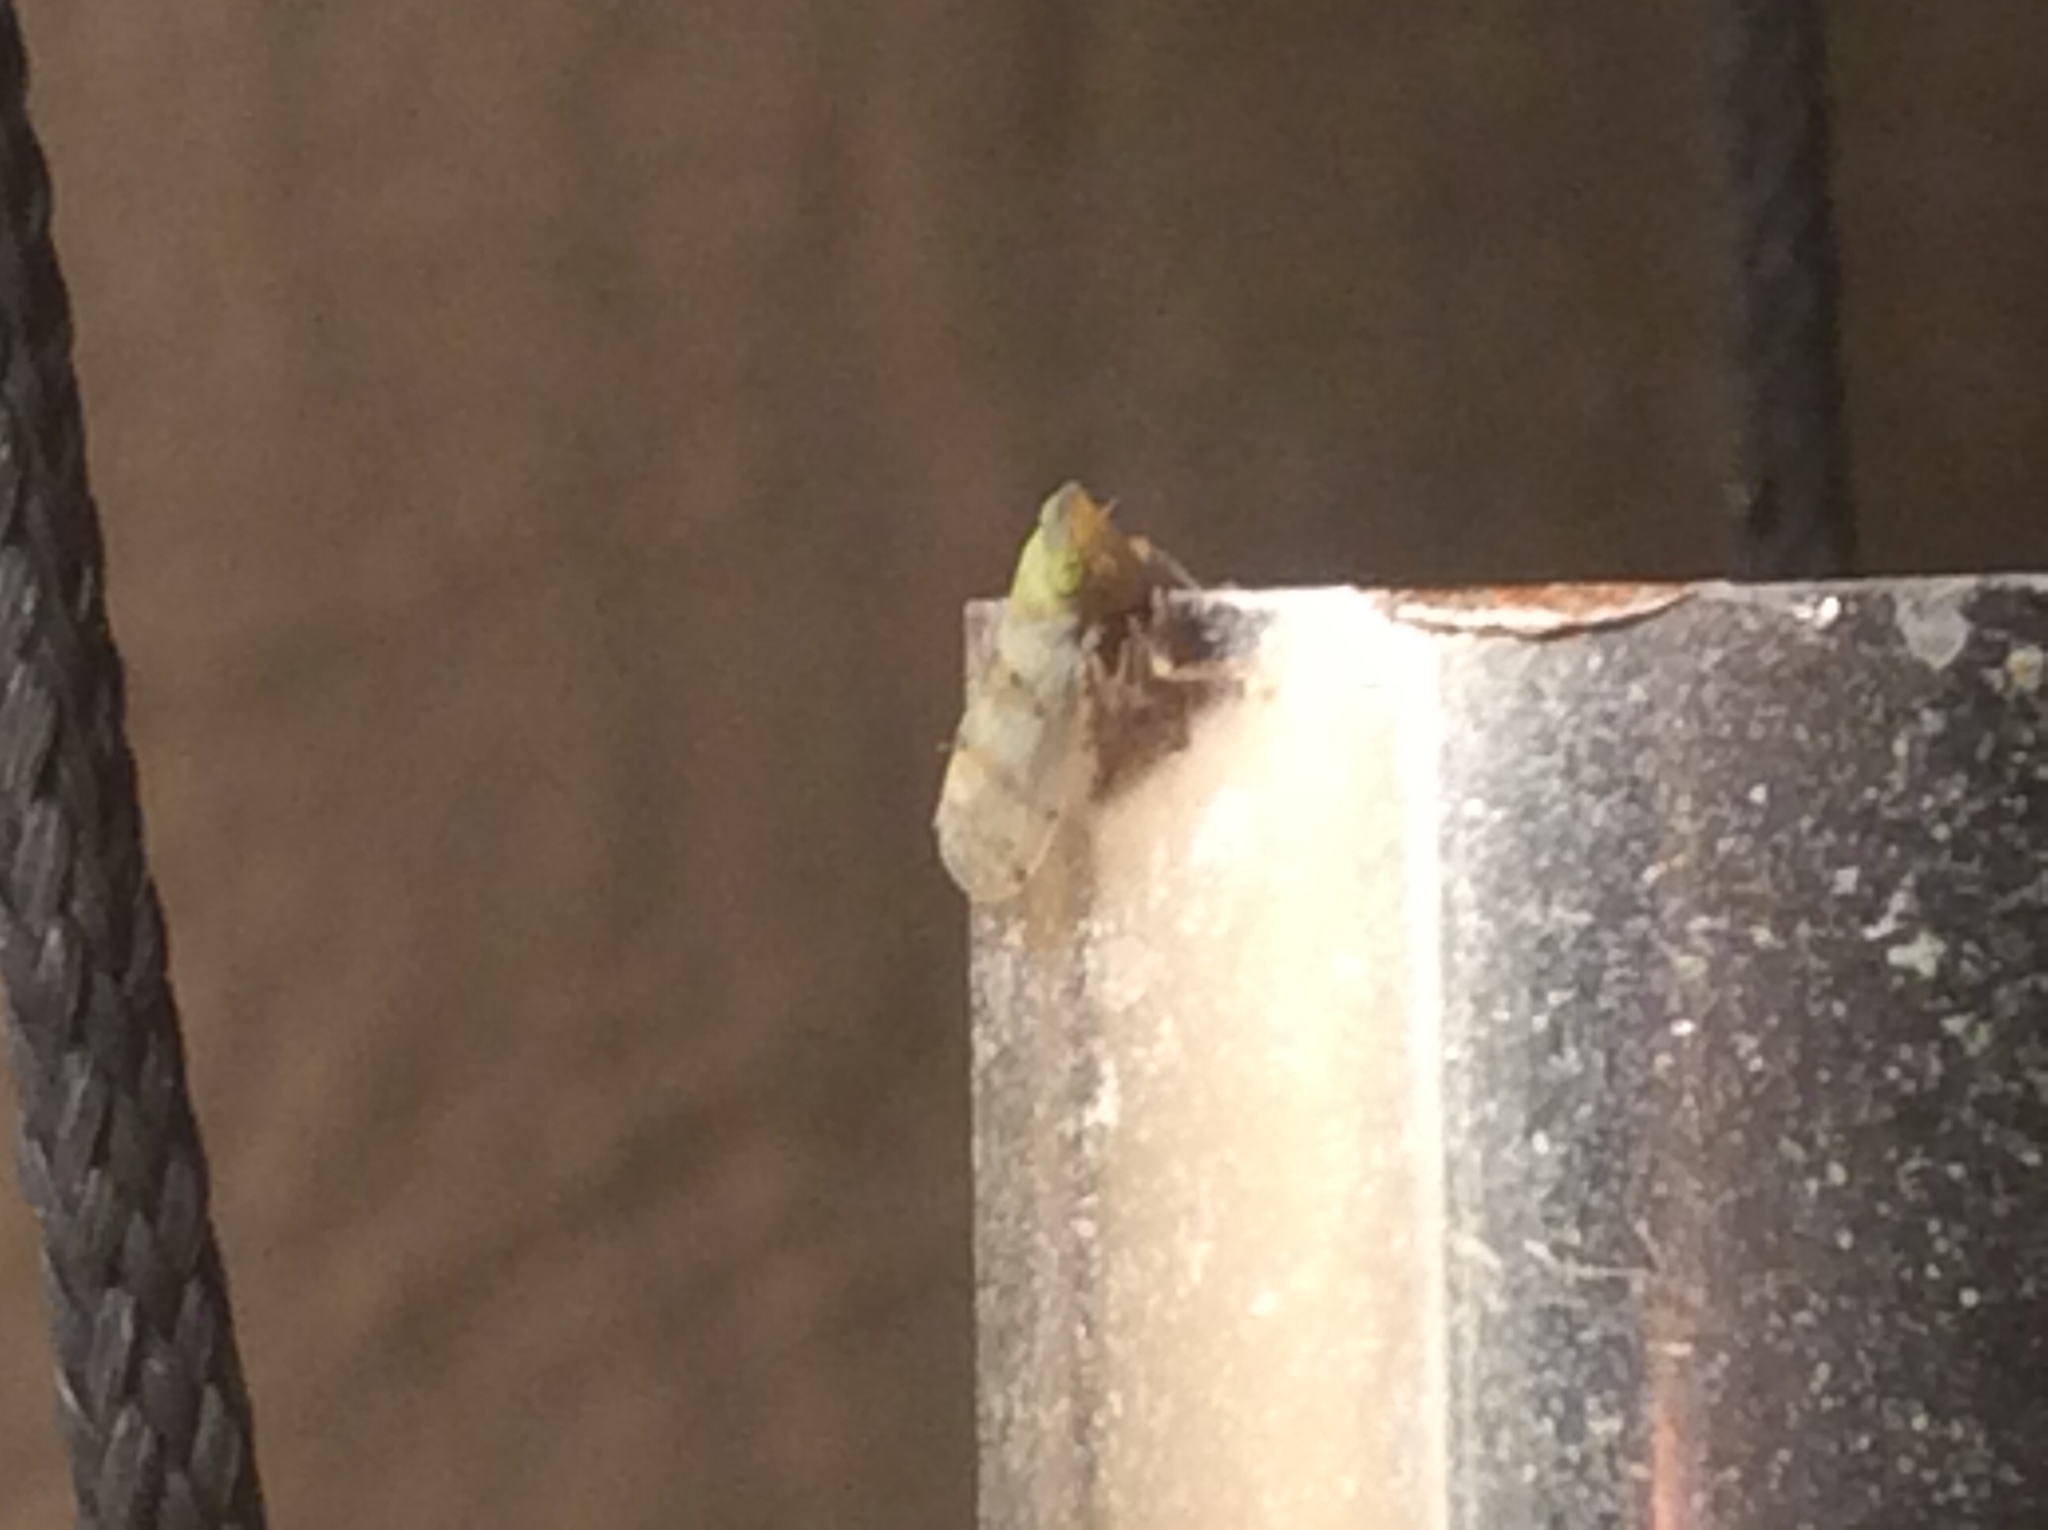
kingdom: Animalia
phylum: Arthropoda
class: Insecta
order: Hemiptera
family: Cicadellidae
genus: Japananus
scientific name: Japananus hyalinus
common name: The japanese maple leafhopper
